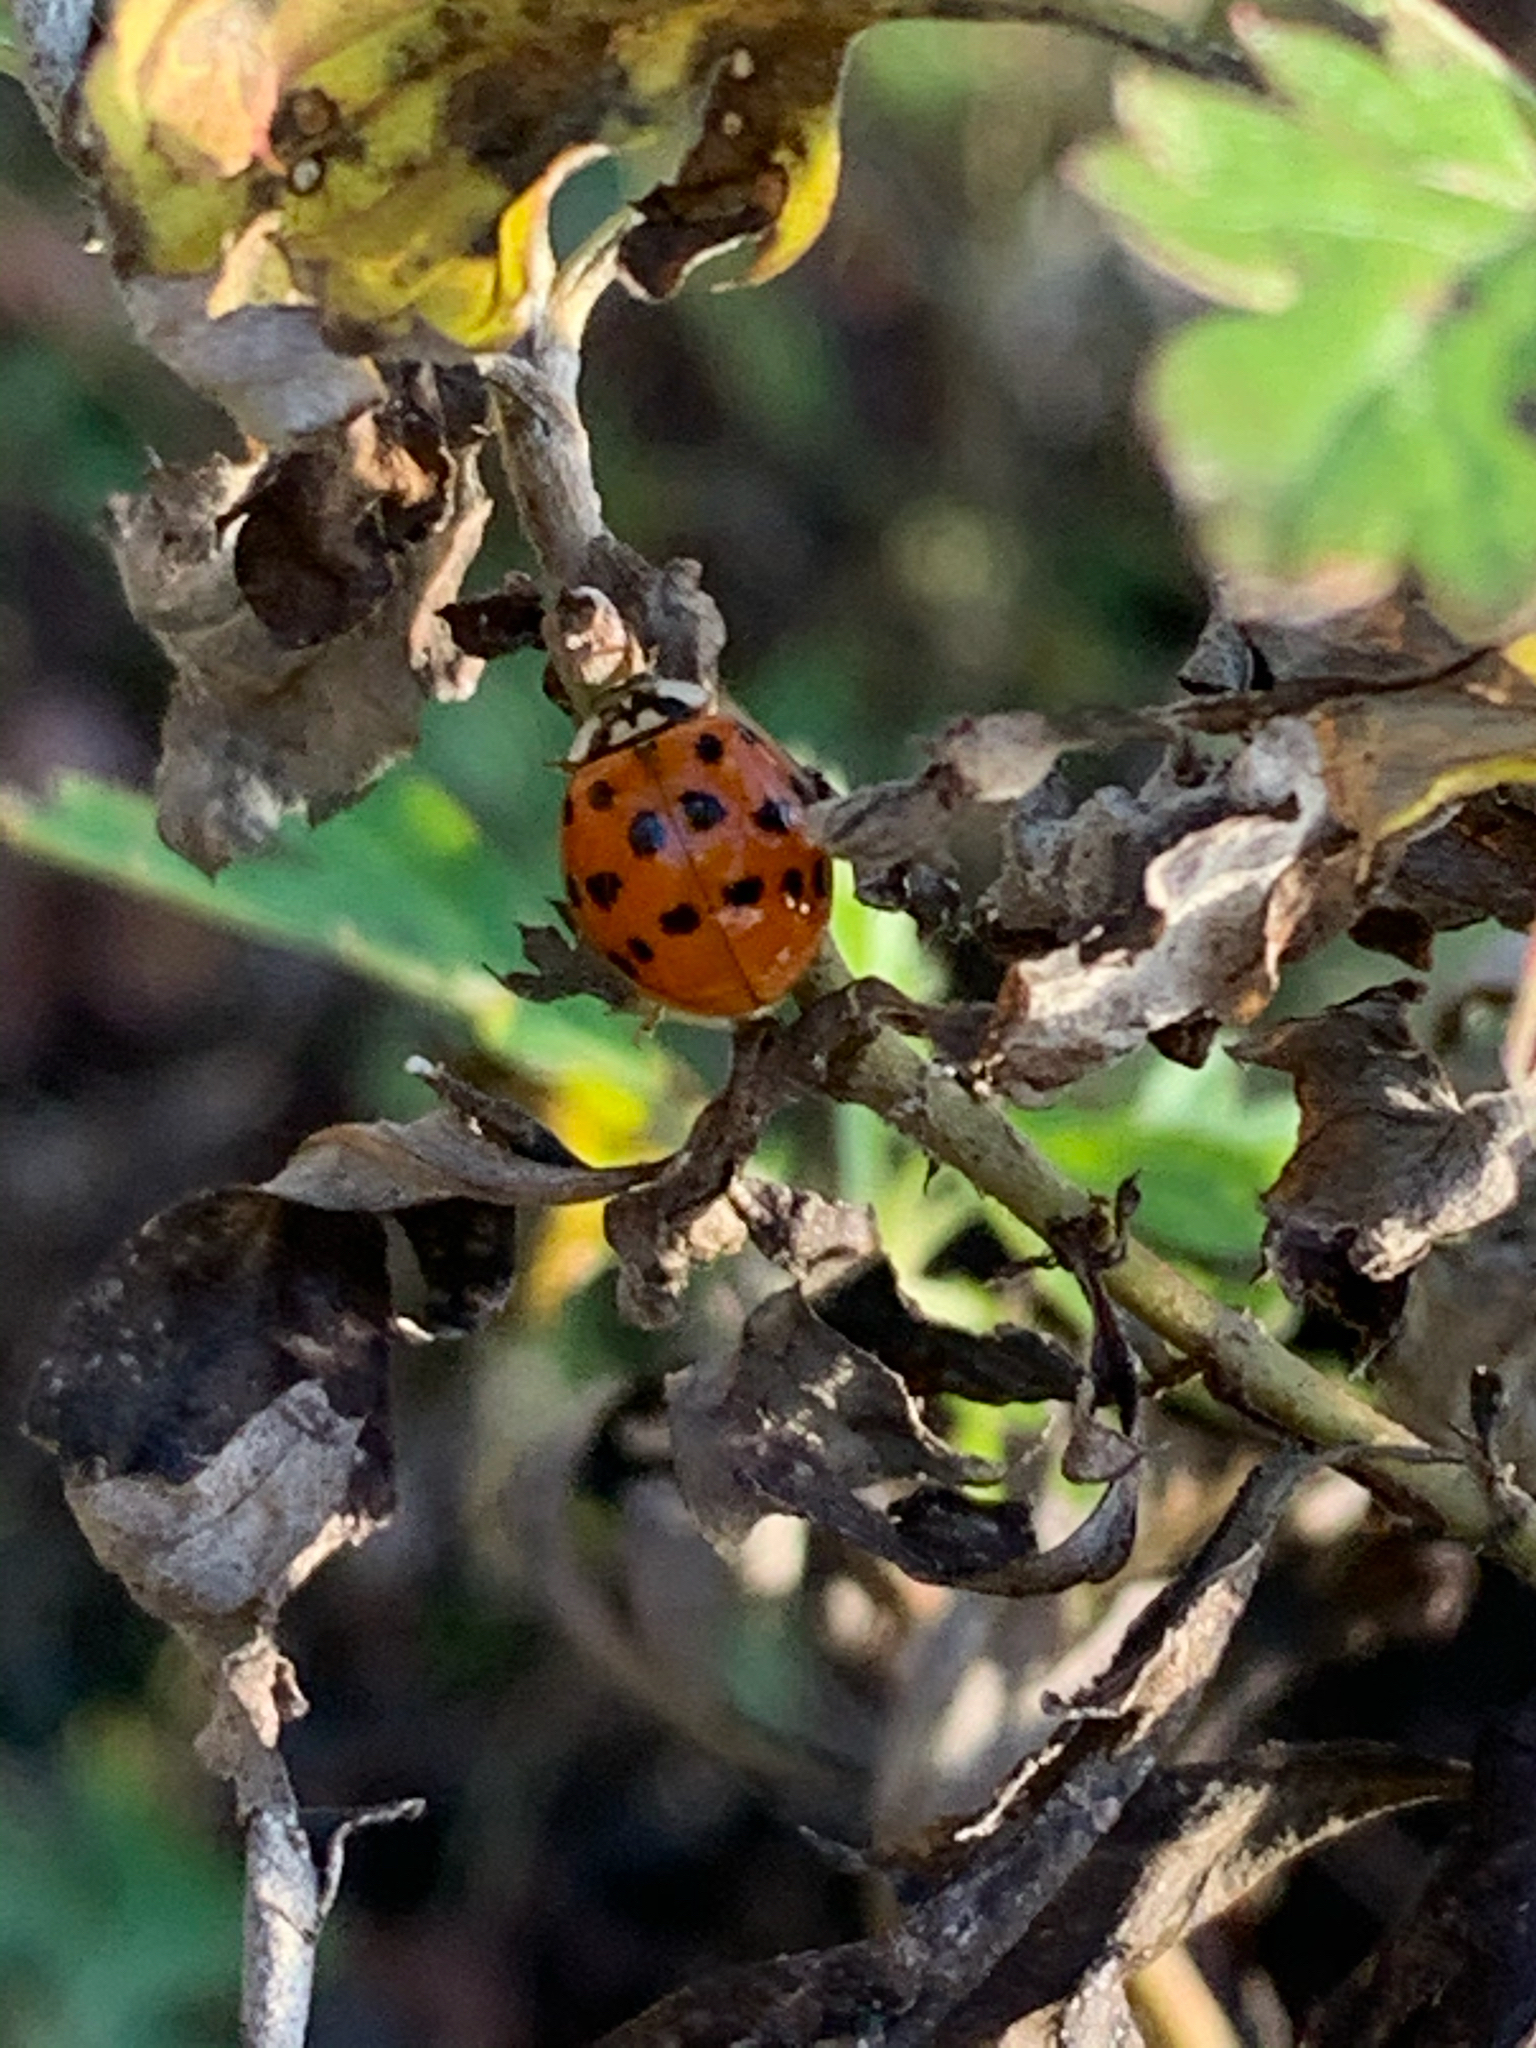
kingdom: Animalia
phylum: Arthropoda
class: Insecta
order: Coleoptera
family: Coccinellidae
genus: Harmonia
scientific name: Harmonia axyridis
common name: Harlequin ladybird
